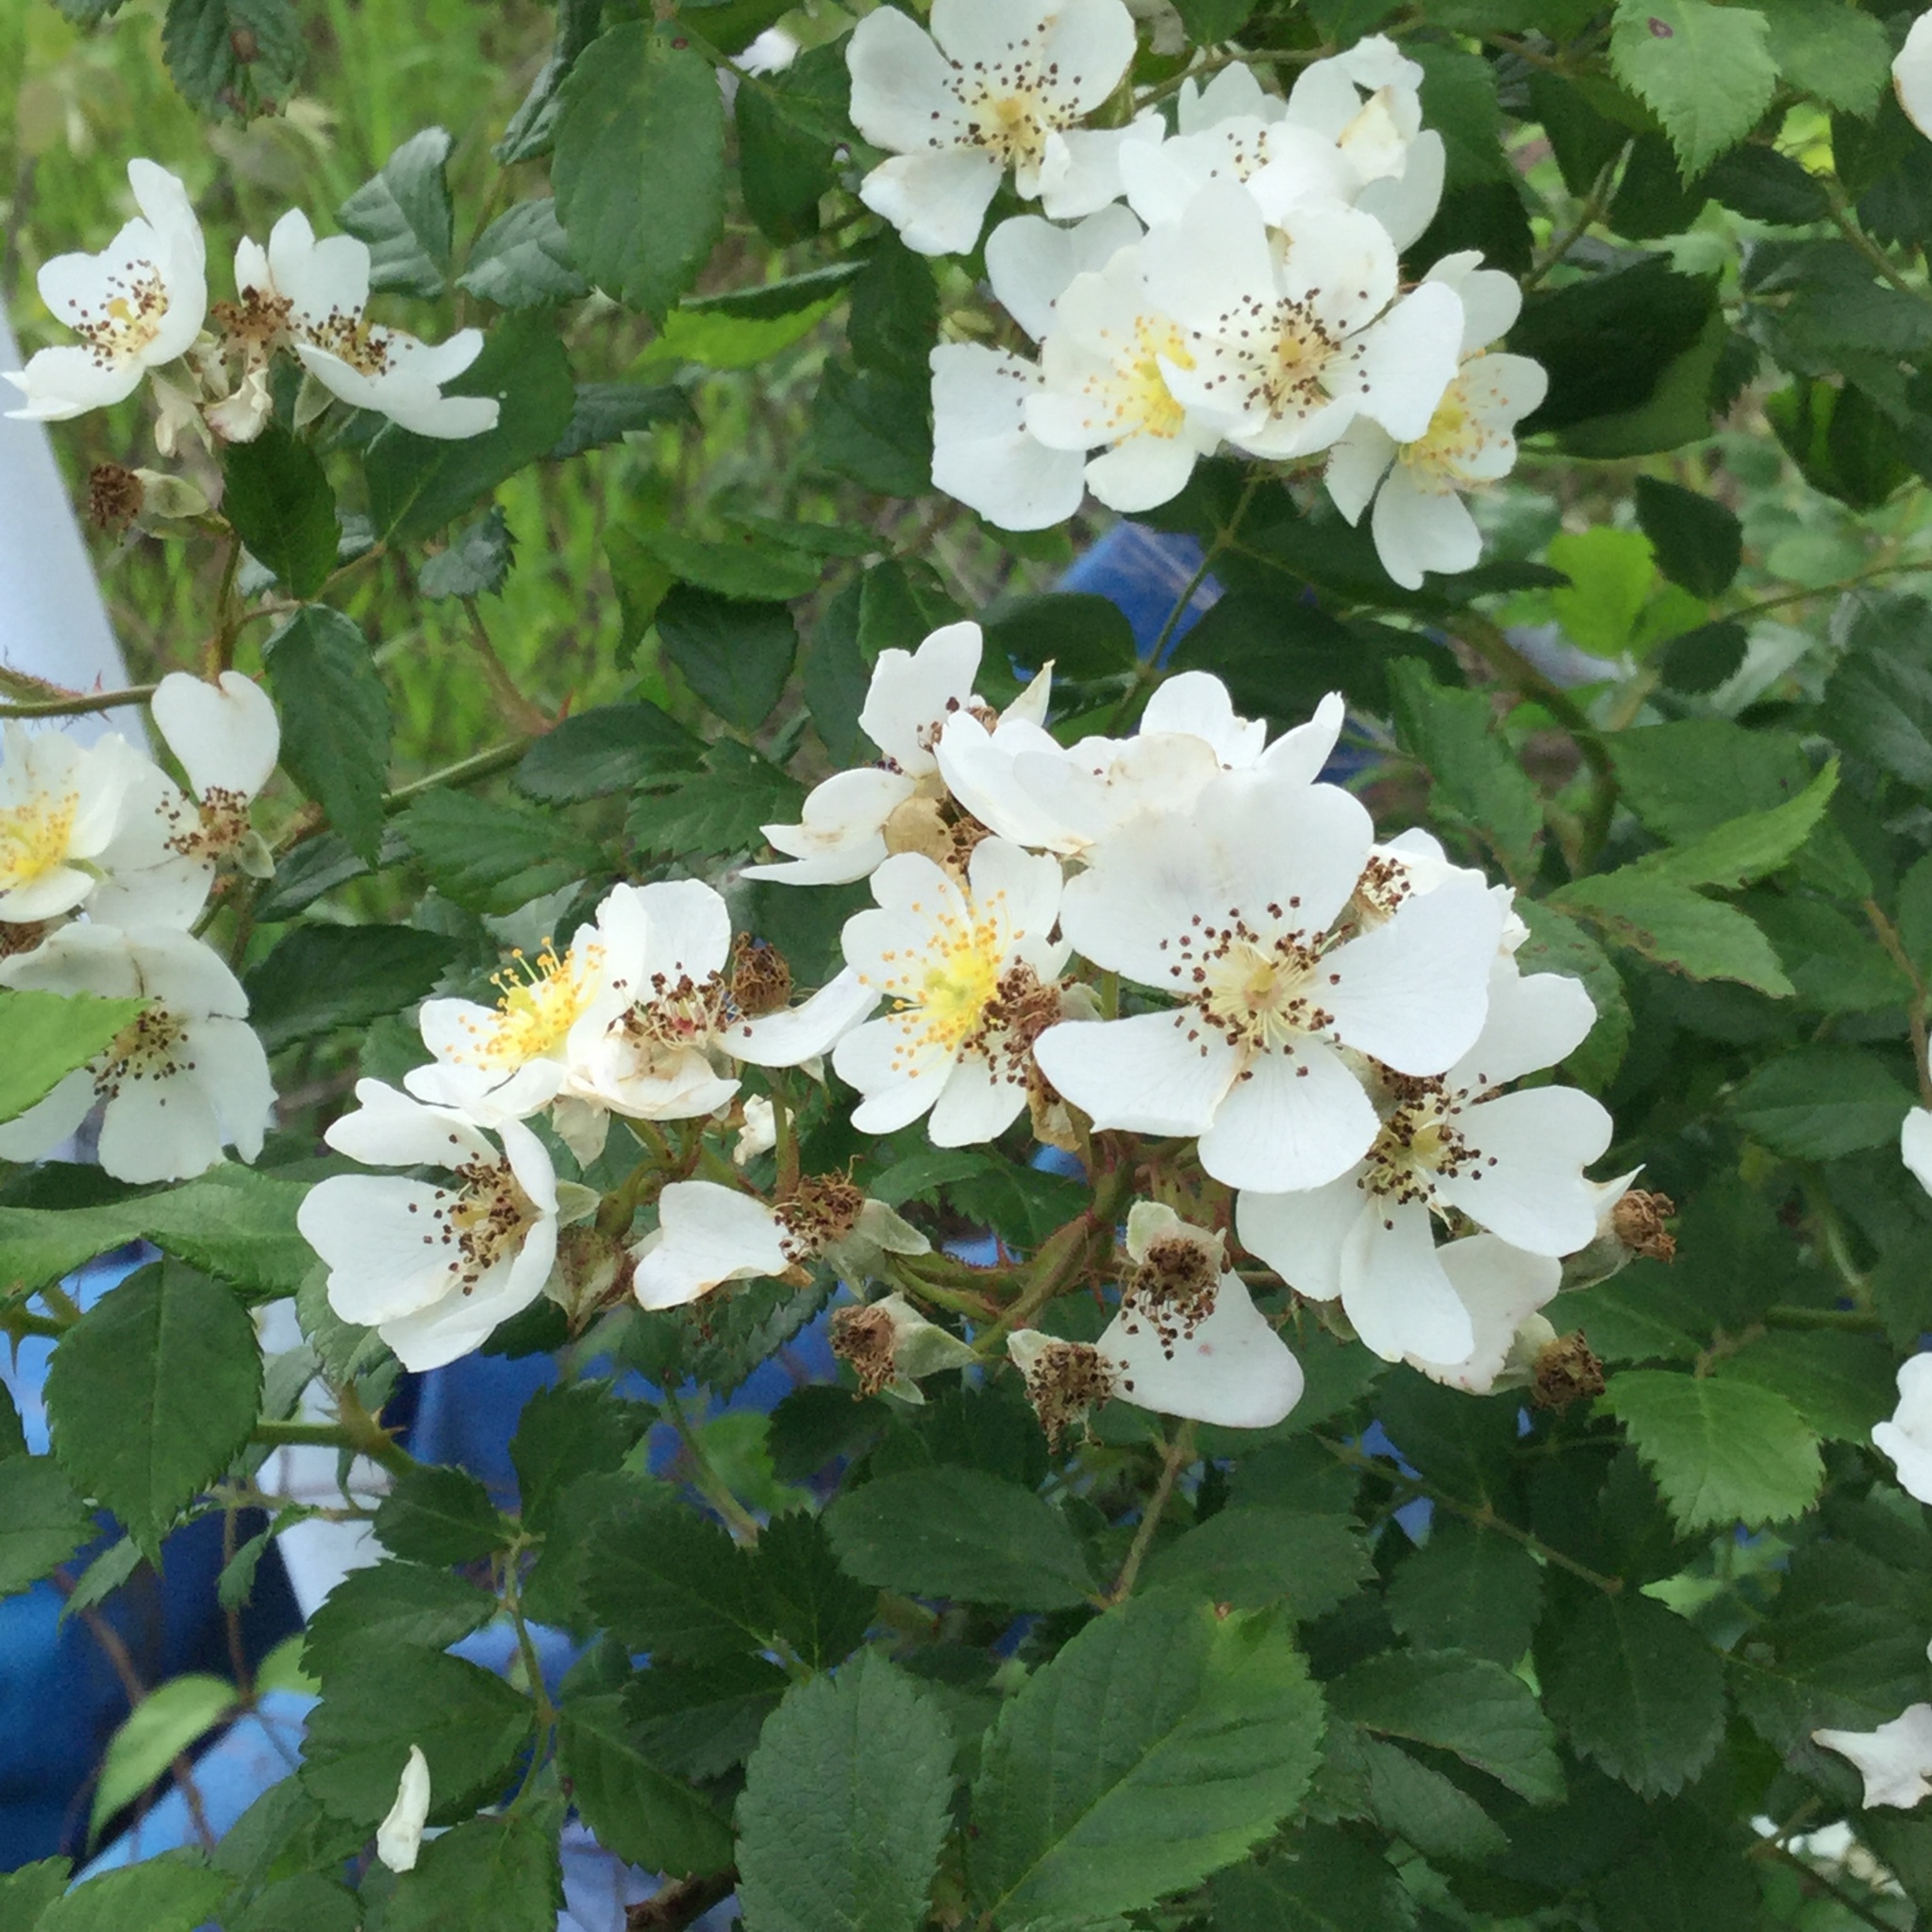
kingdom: Plantae
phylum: Tracheophyta
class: Magnoliopsida
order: Rosales
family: Rosaceae
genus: Rosa
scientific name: Rosa multiflora
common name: Multiflora rose
